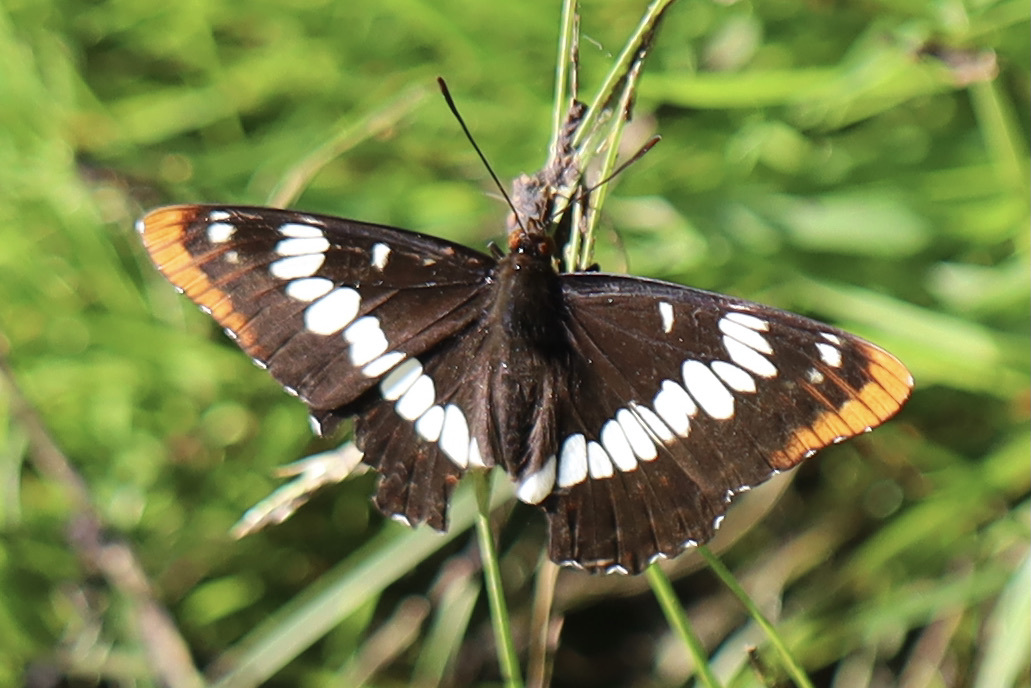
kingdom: Animalia
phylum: Arthropoda
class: Insecta
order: Lepidoptera
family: Nymphalidae
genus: Limenitis
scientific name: Limenitis lorquini
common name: Lorquin's admiral
